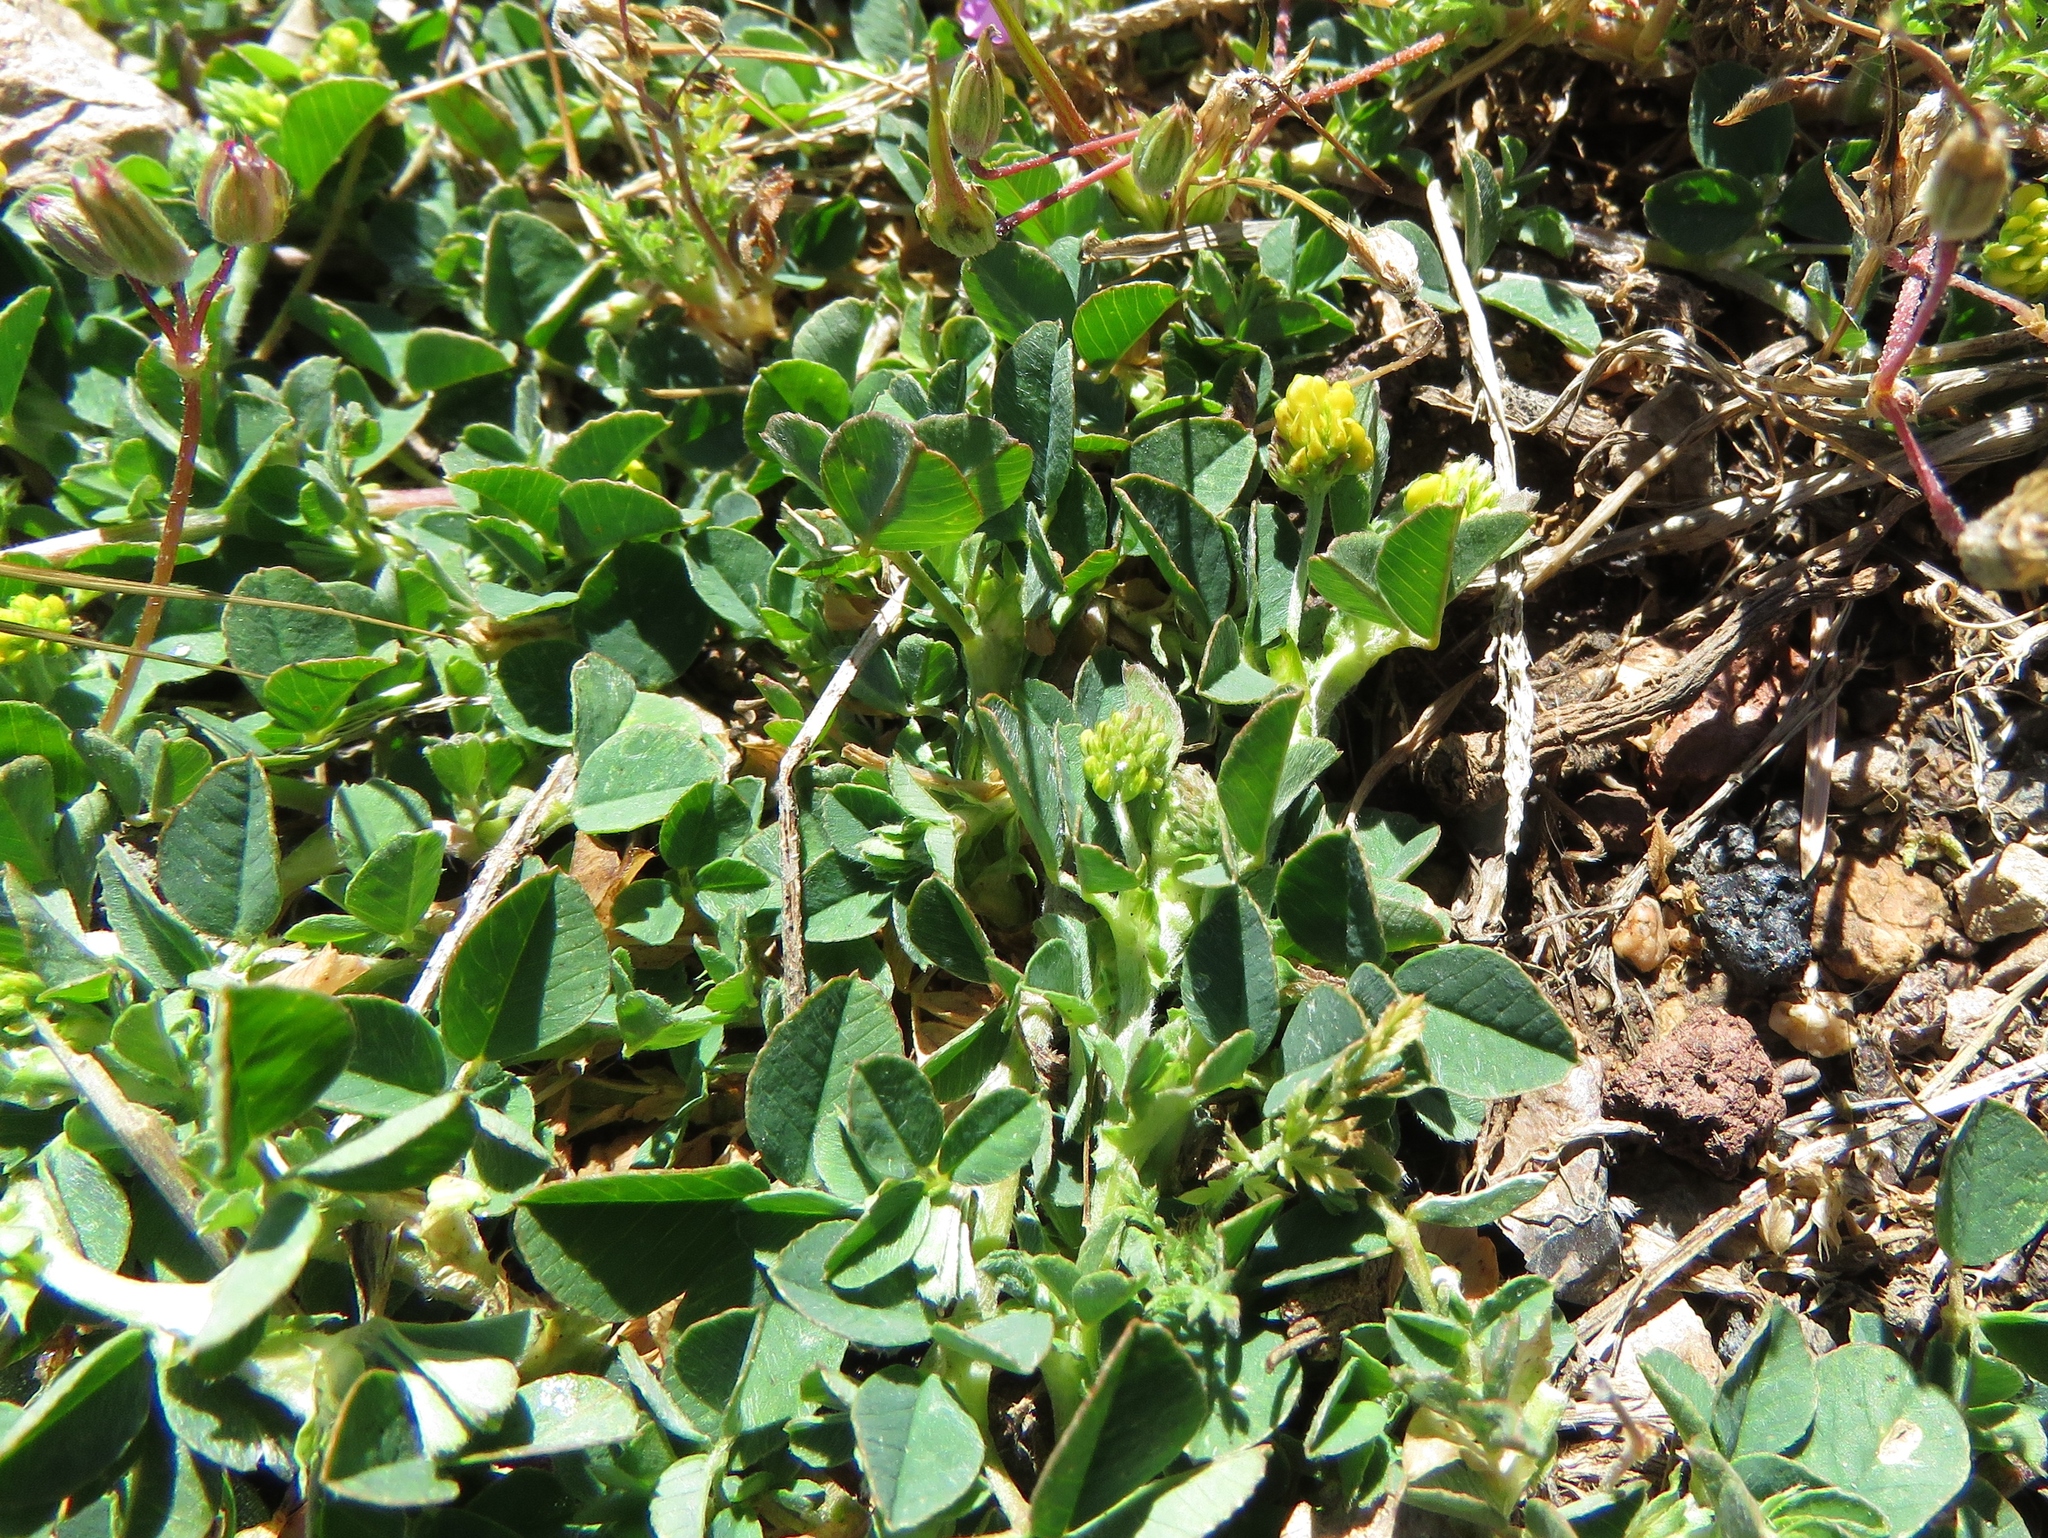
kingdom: Plantae
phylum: Tracheophyta
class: Magnoliopsida
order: Fabales
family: Fabaceae
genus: Medicago
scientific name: Medicago lupulina
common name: Black medick
